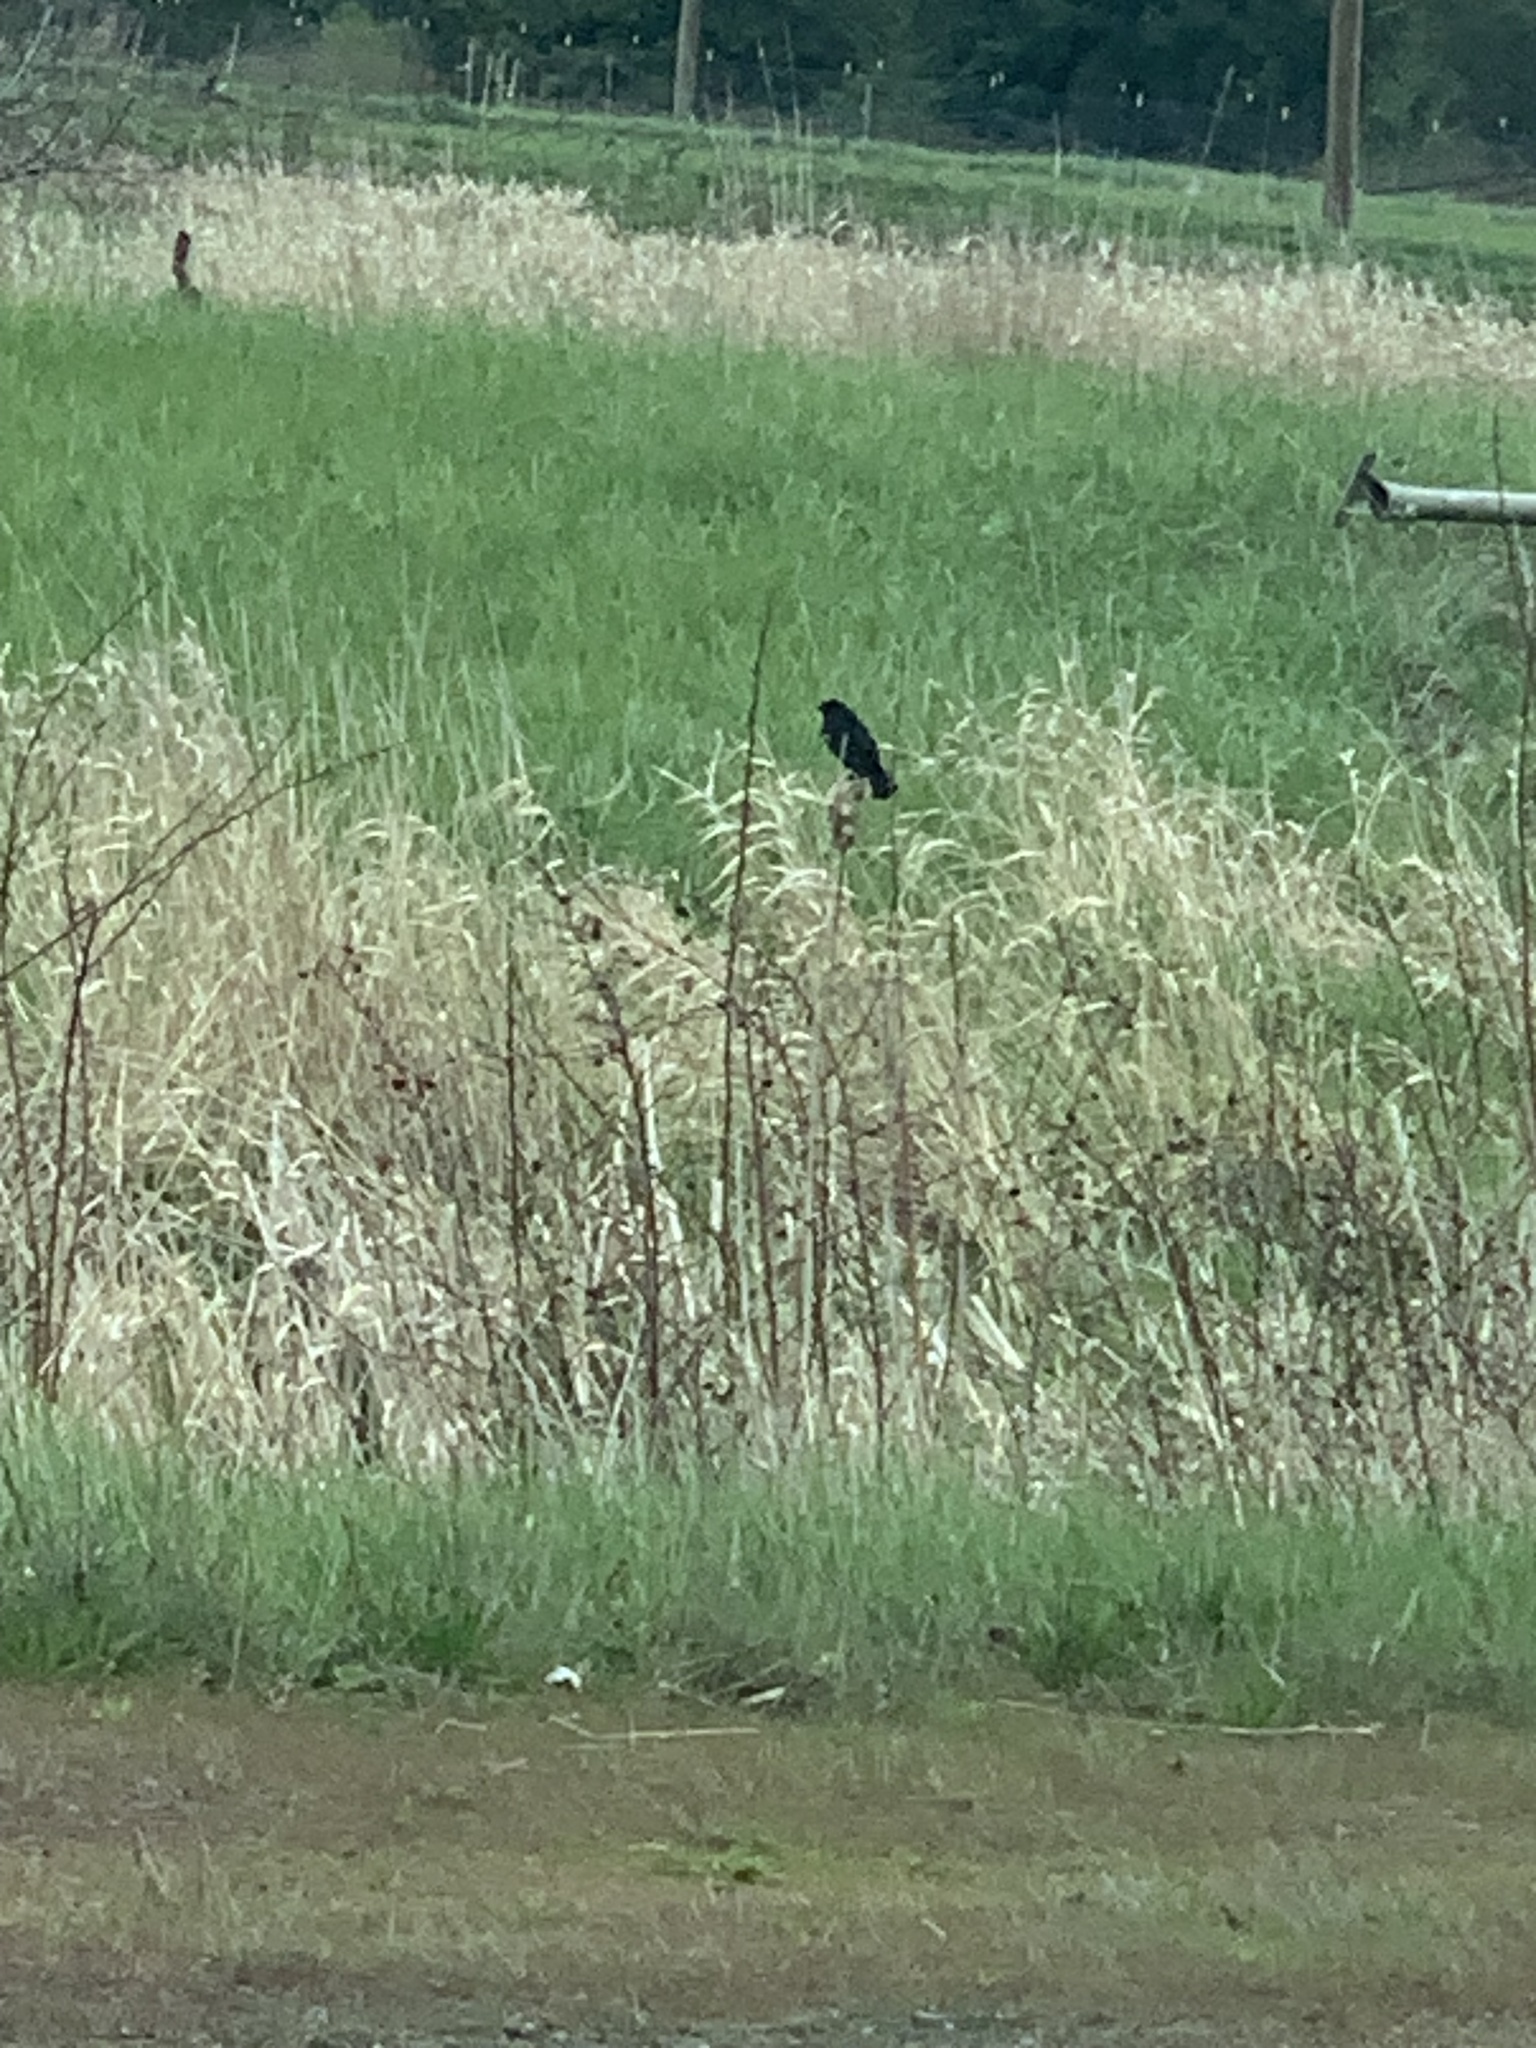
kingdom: Animalia
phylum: Chordata
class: Aves
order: Passeriformes
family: Icteridae
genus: Agelaius
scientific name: Agelaius phoeniceus
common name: Red-winged blackbird
